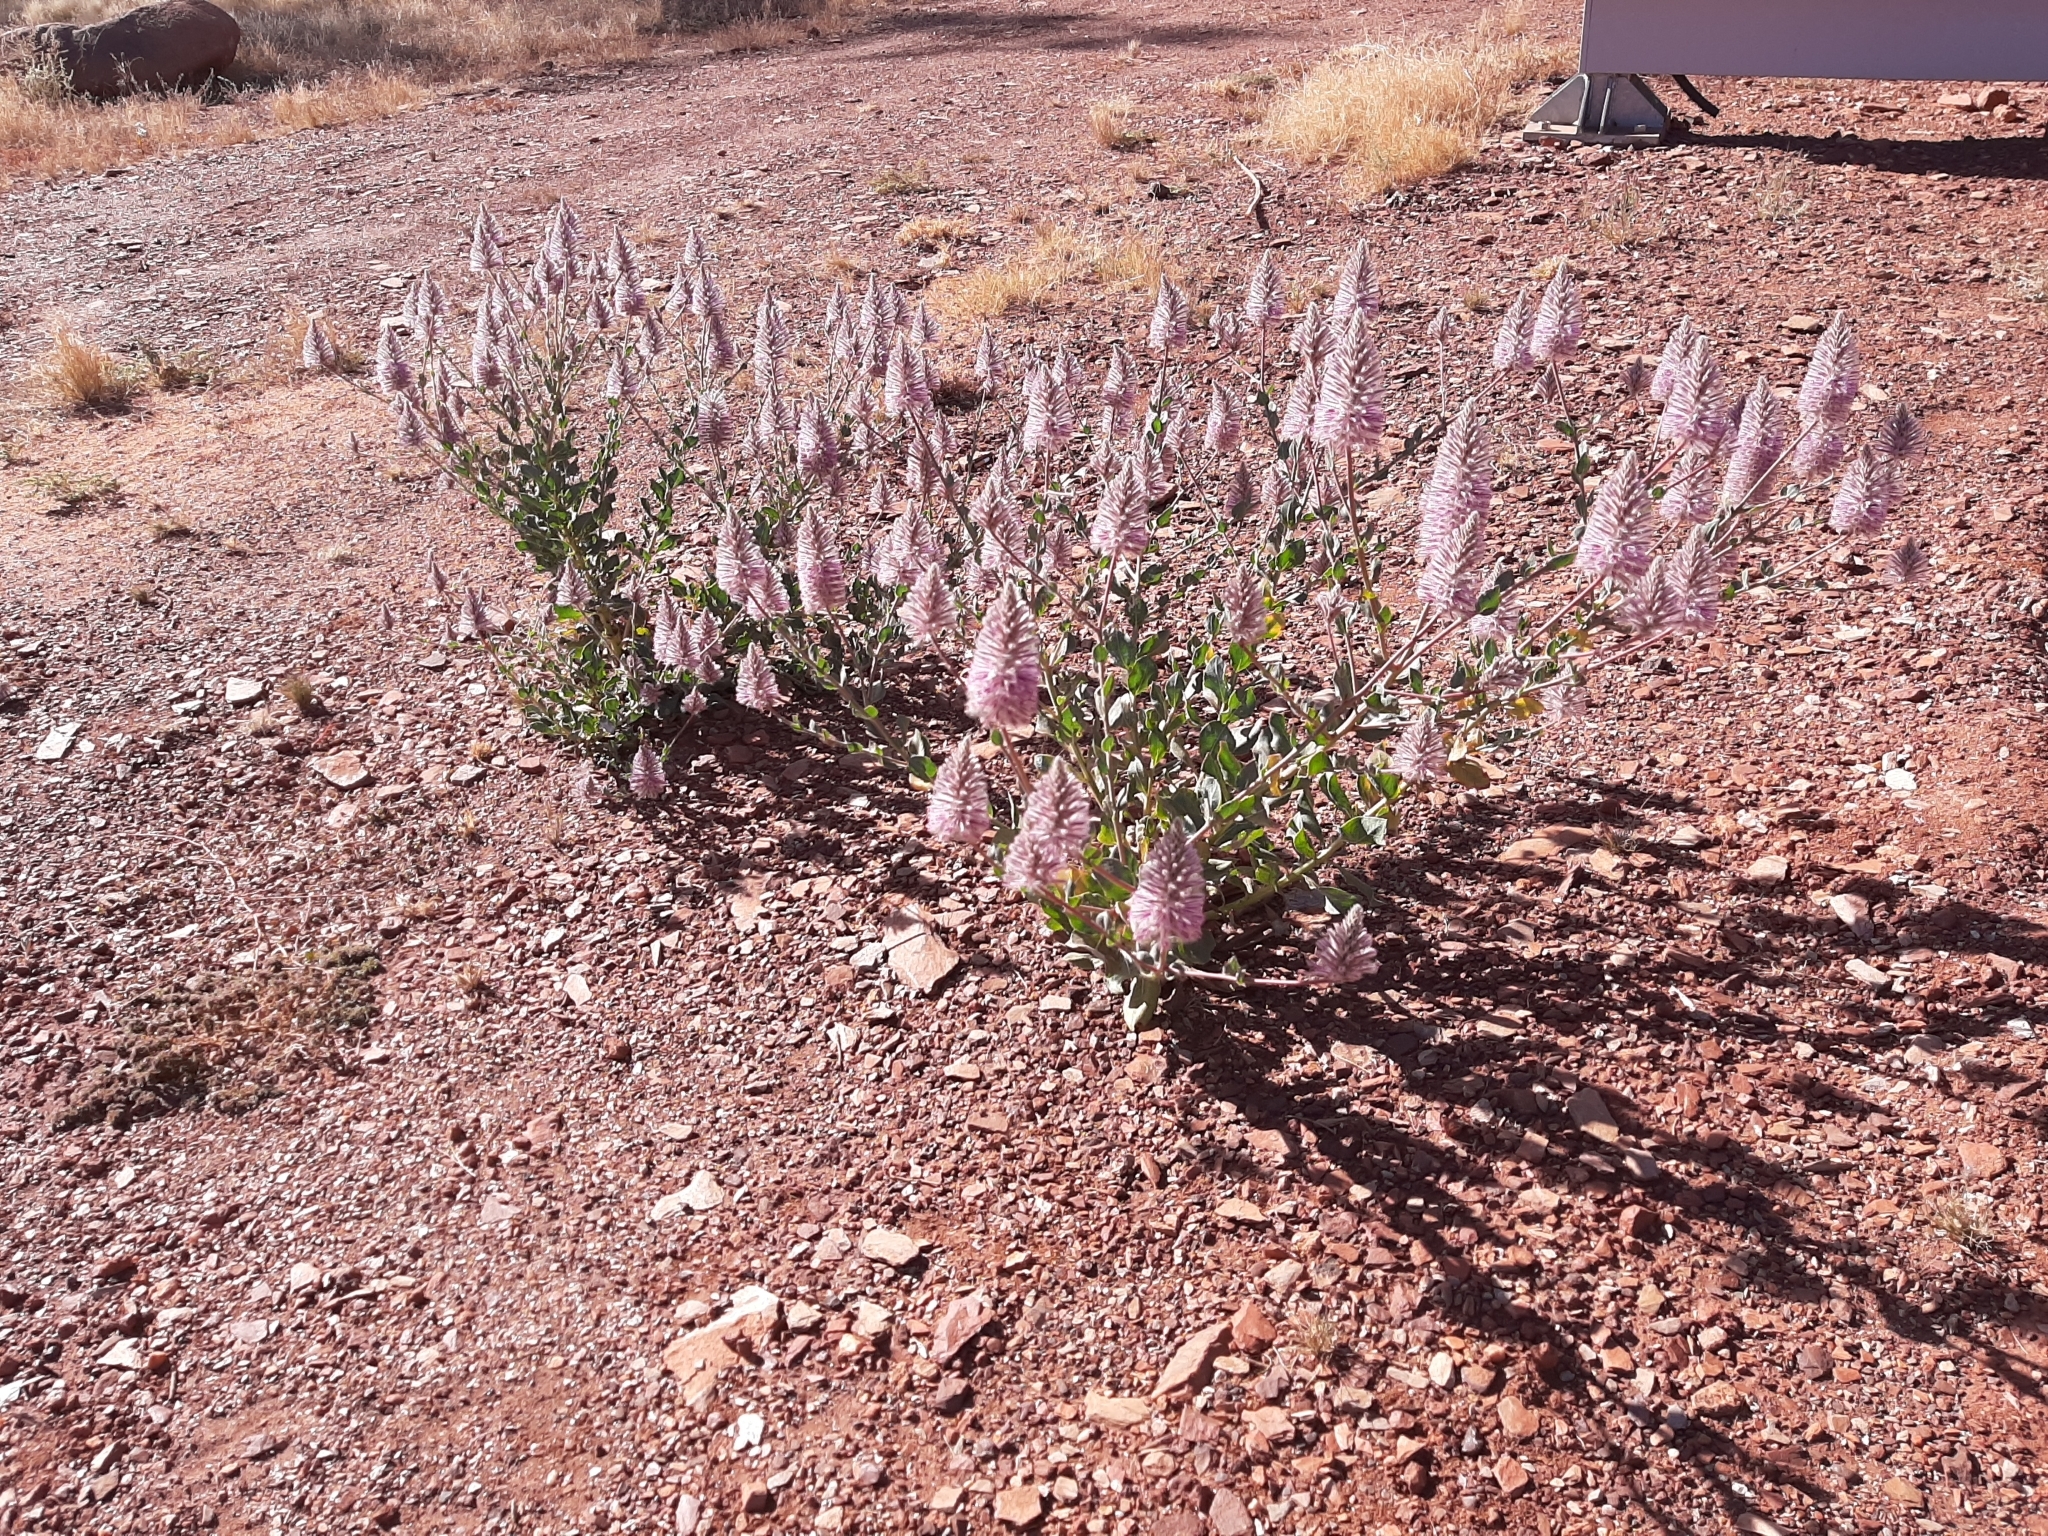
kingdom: Plantae
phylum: Tracheophyta
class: Magnoliopsida
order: Caryophyllales
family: Amaranthaceae
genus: Ptilotus
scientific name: Ptilotus exaltatus
